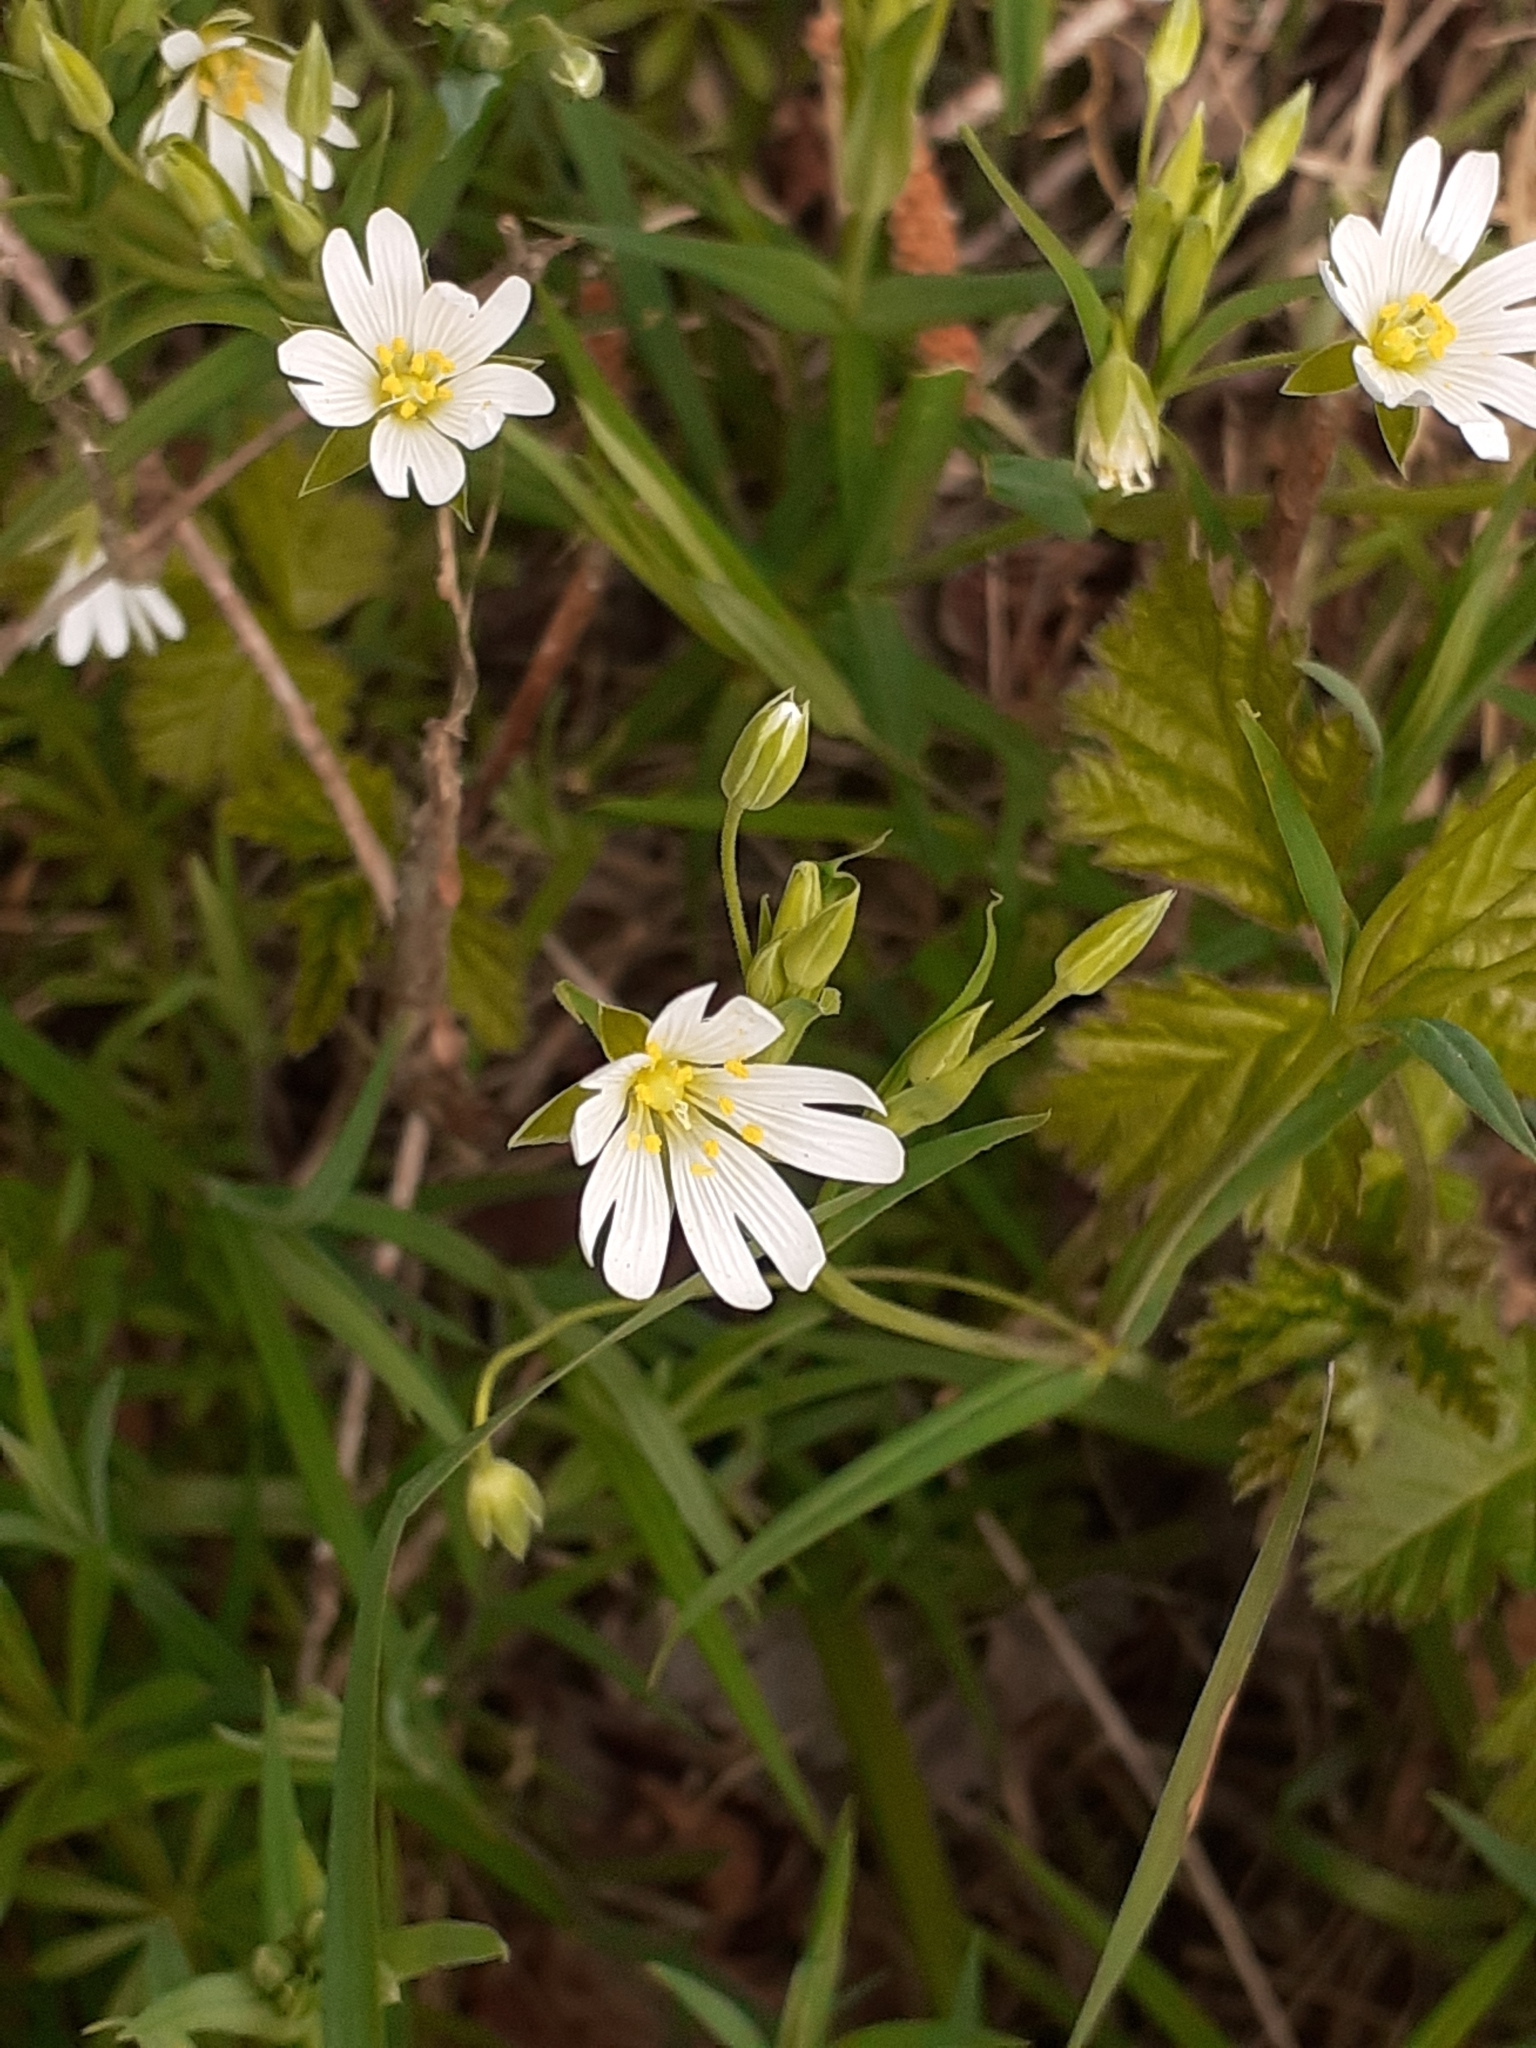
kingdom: Plantae
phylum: Tracheophyta
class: Magnoliopsida
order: Caryophyllales
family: Caryophyllaceae
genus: Rabelera
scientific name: Rabelera holostea
